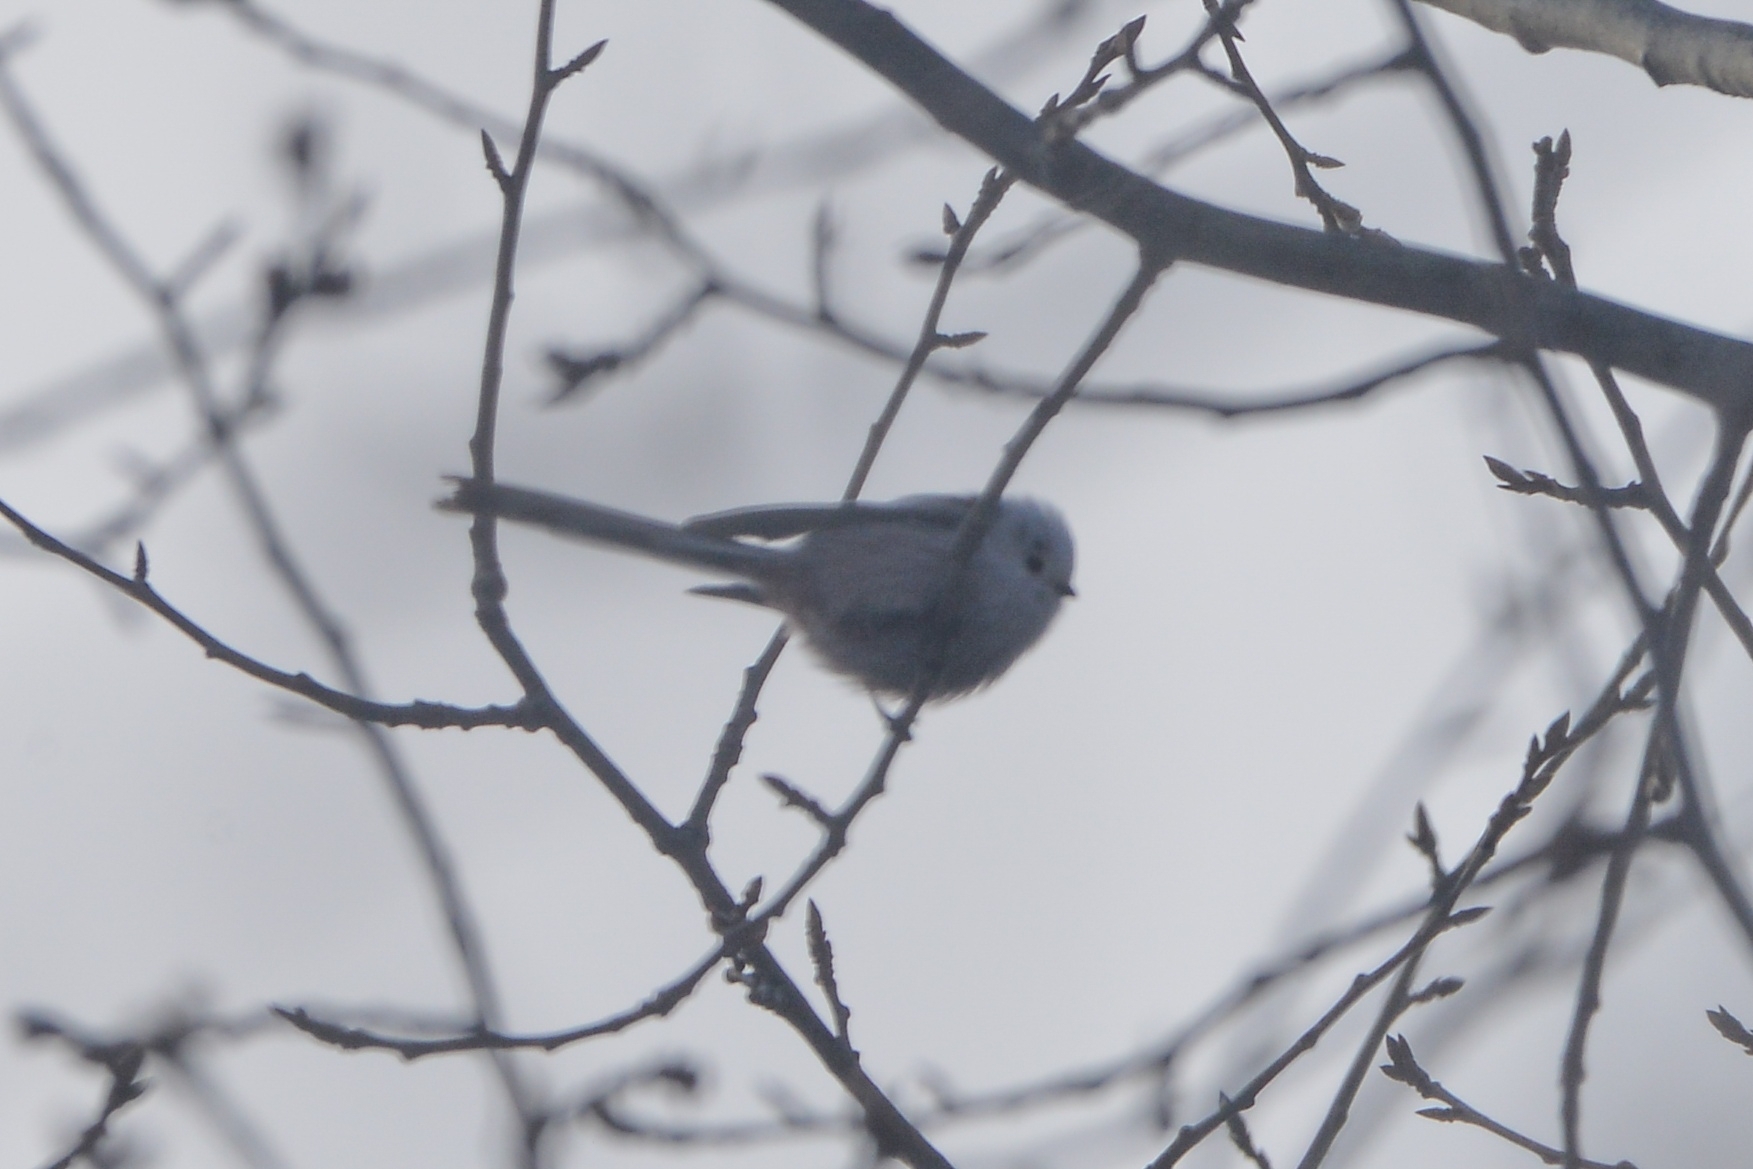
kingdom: Animalia
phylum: Chordata
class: Aves
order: Passeriformes
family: Aegithalidae
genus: Aegithalos
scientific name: Aegithalos caudatus
